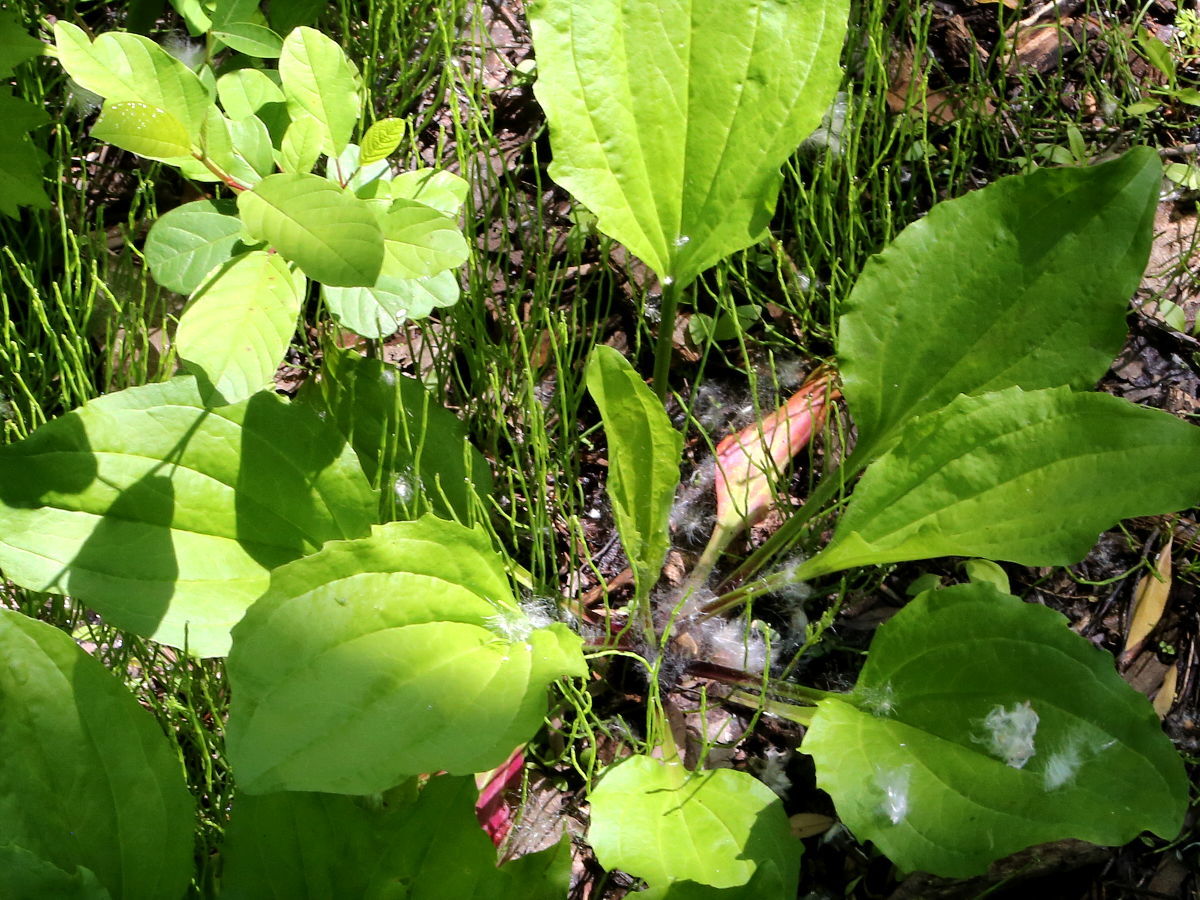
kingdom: Plantae
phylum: Tracheophyta
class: Magnoliopsida
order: Lamiales
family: Plantaginaceae
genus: Plantago
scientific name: Plantago rugelii
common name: American plantain
